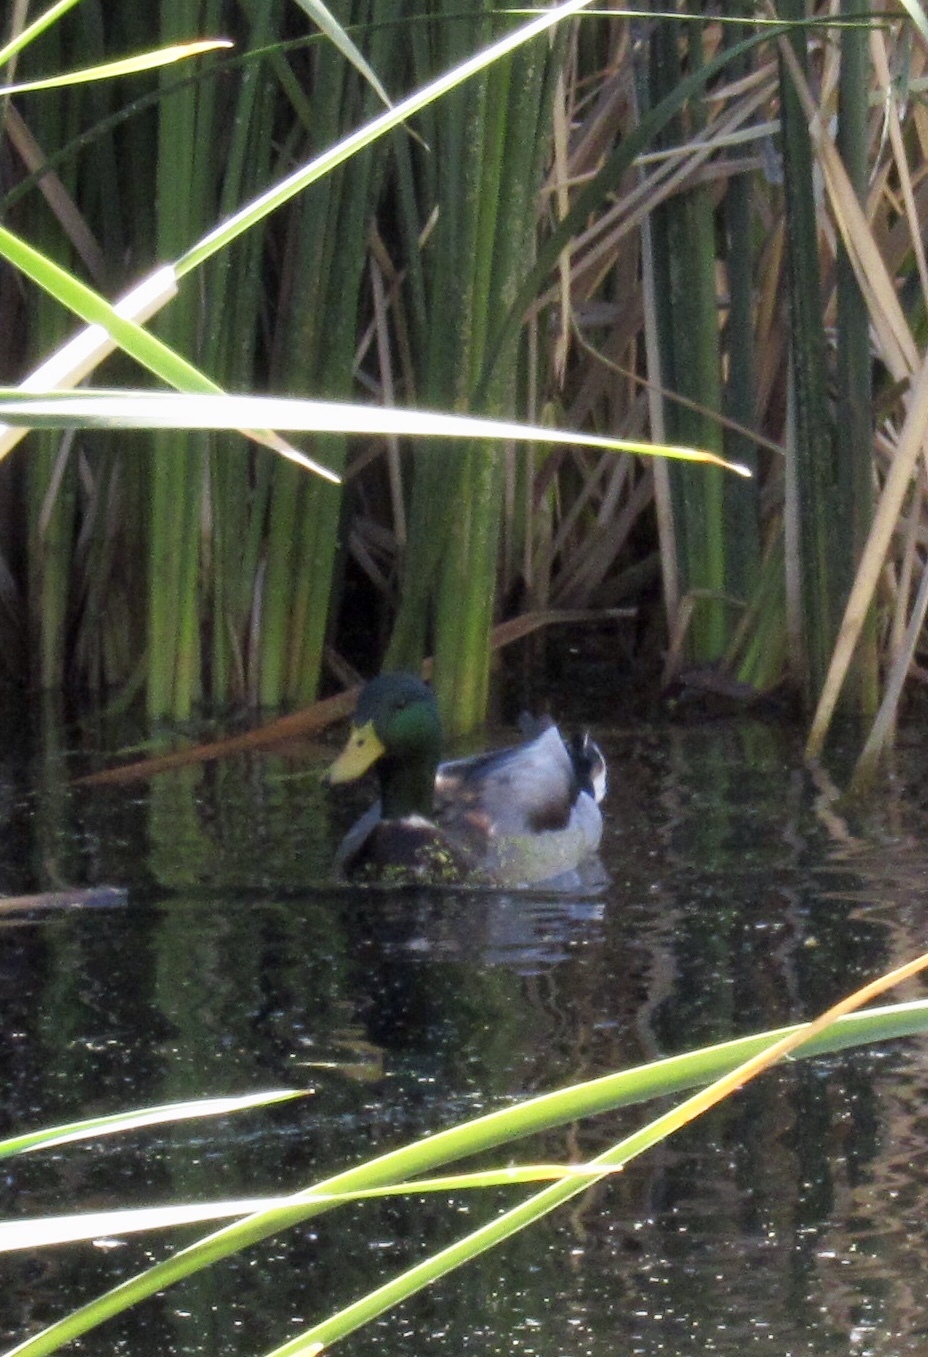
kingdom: Animalia
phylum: Chordata
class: Aves
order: Anseriformes
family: Anatidae
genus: Anas
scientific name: Anas platyrhynchos
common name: Mallard
